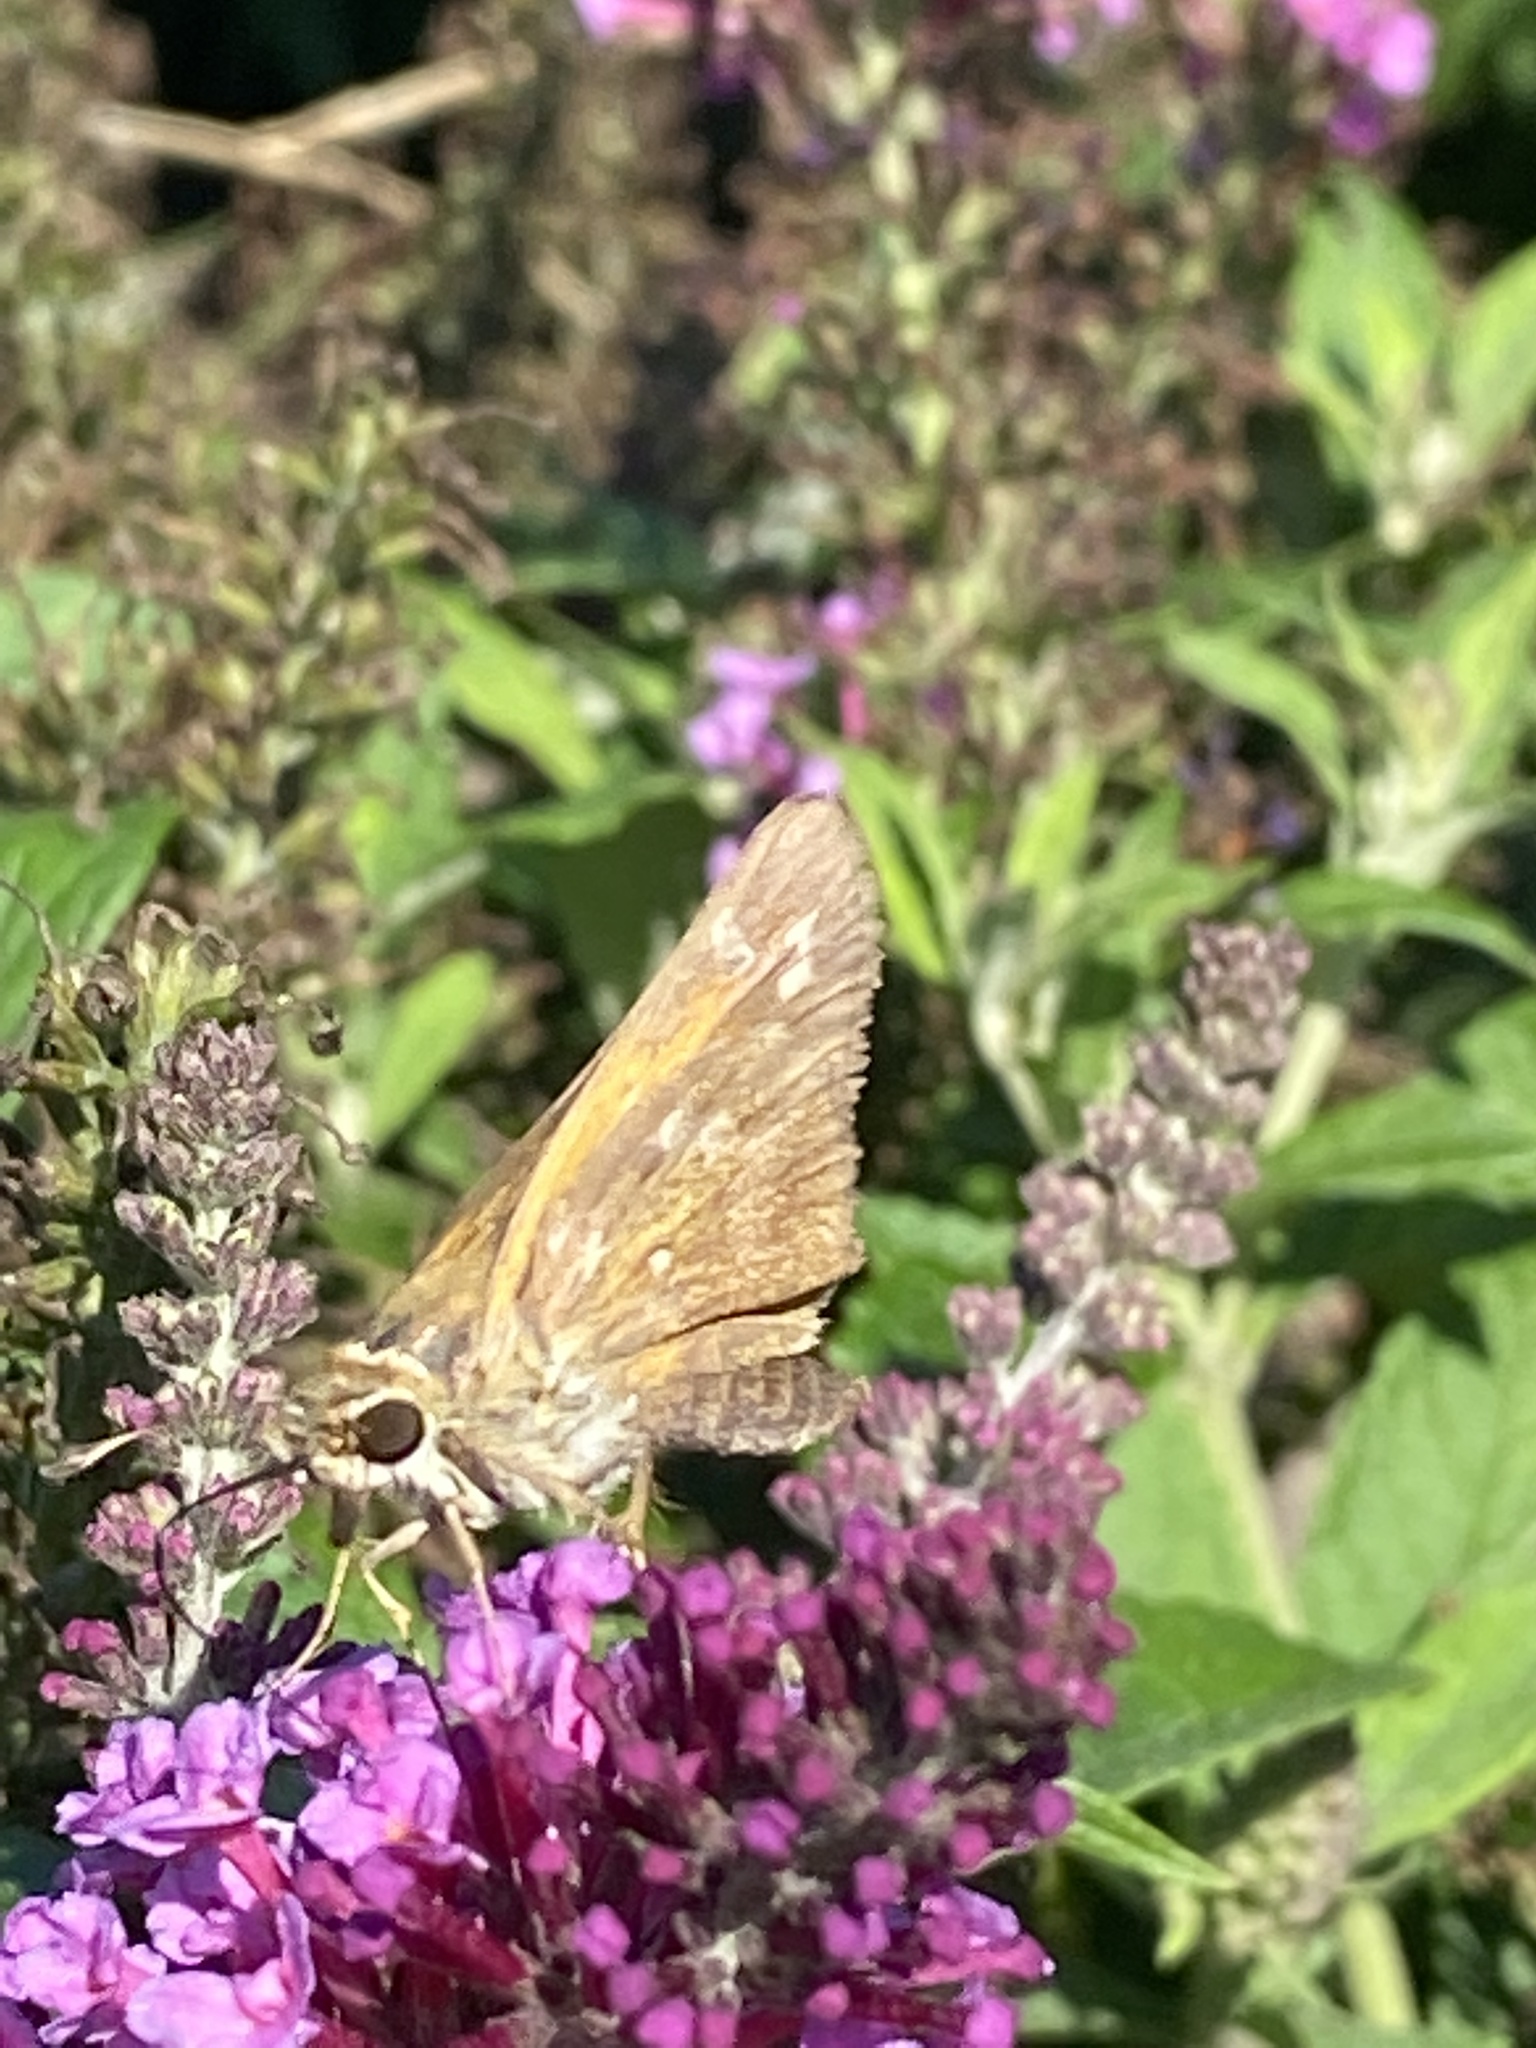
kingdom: Animalia
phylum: Arthropoda
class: Insecta
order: Lepidoptera
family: Hesperiidae
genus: Atalopedes
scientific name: Atalopedes
